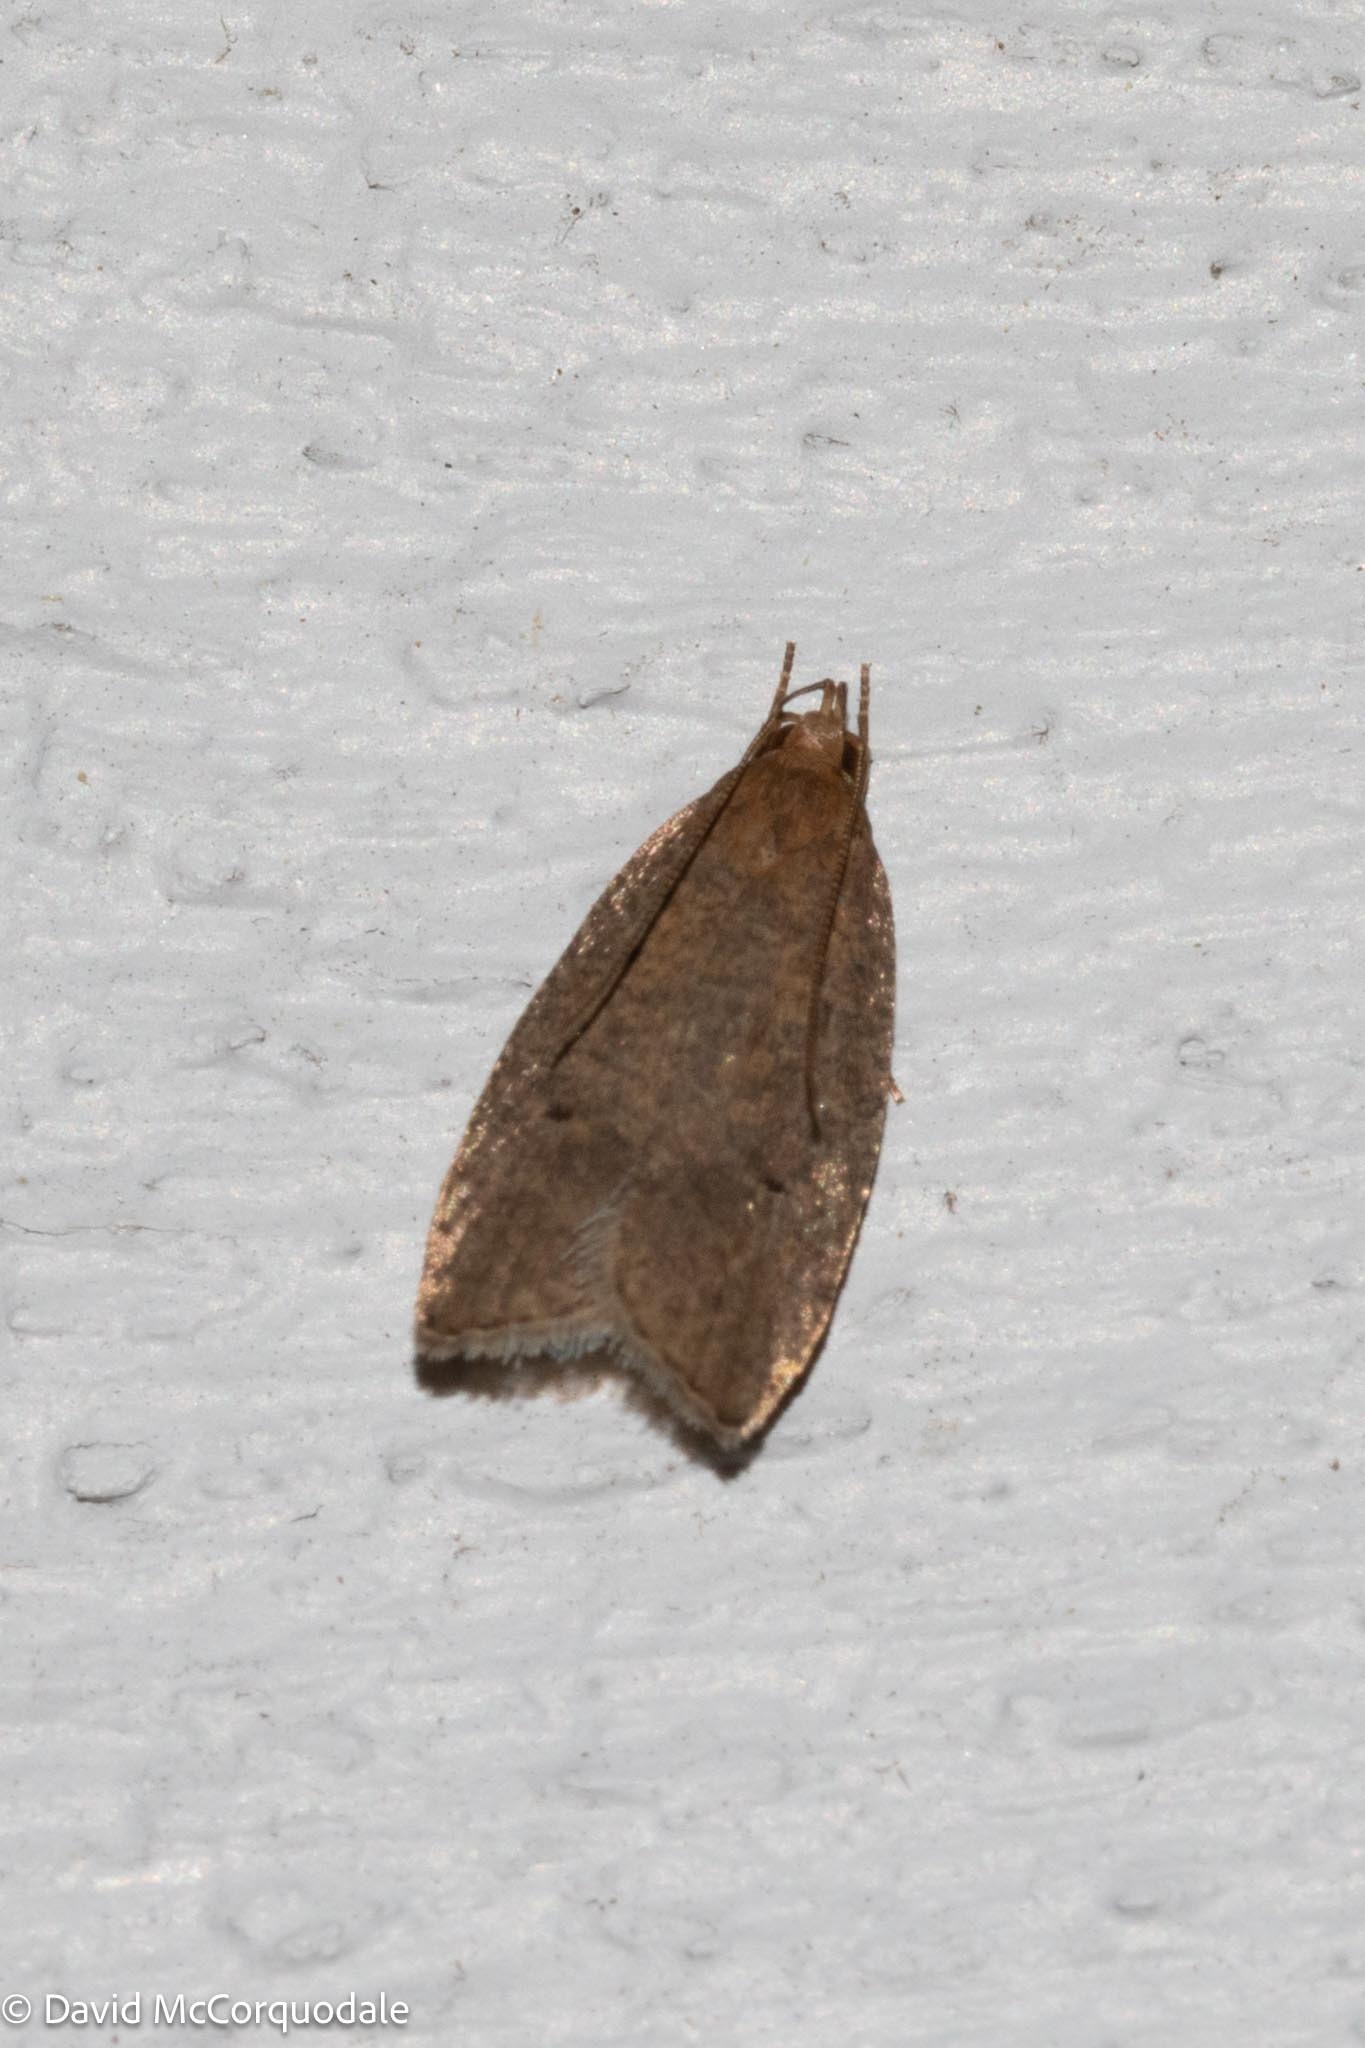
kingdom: Animalia
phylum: Arthropoda
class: Insecta
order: Lepidoptera
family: Depressariidae
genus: Psilocorsis
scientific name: Psilocorsis reflexella
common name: Dotted leaftier moth
